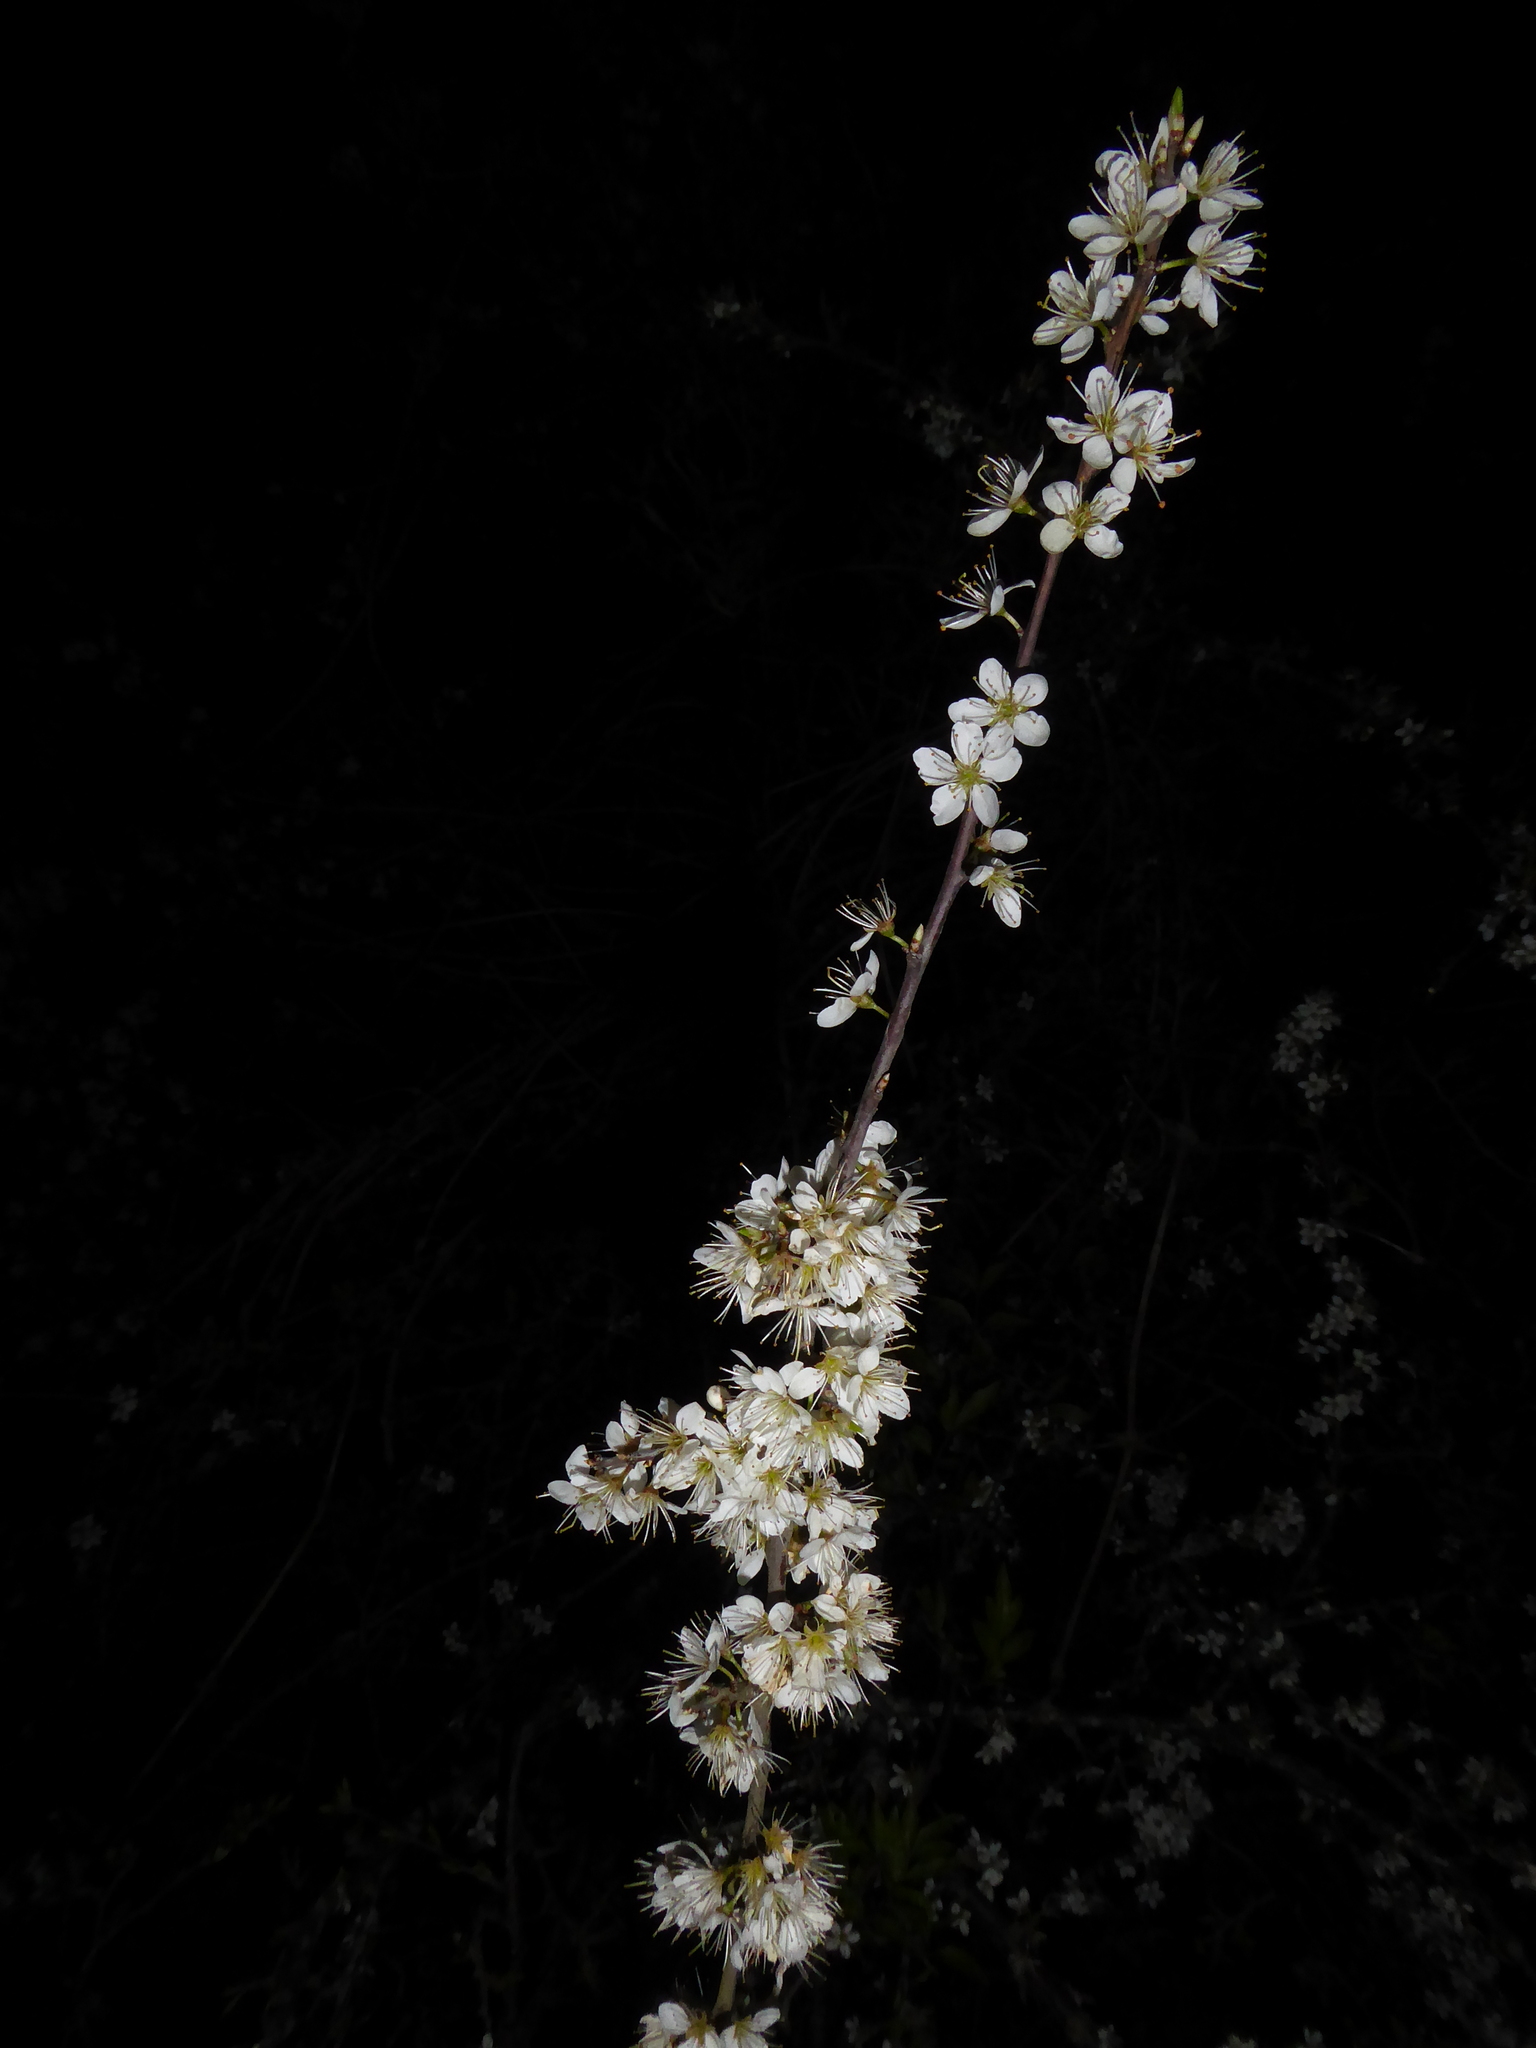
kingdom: Plantae
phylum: Tracheophyta
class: Magnoliopsida
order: Rosales
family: Rosaceae
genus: Prunus
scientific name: Prunus spinosa
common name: Blackthorn
